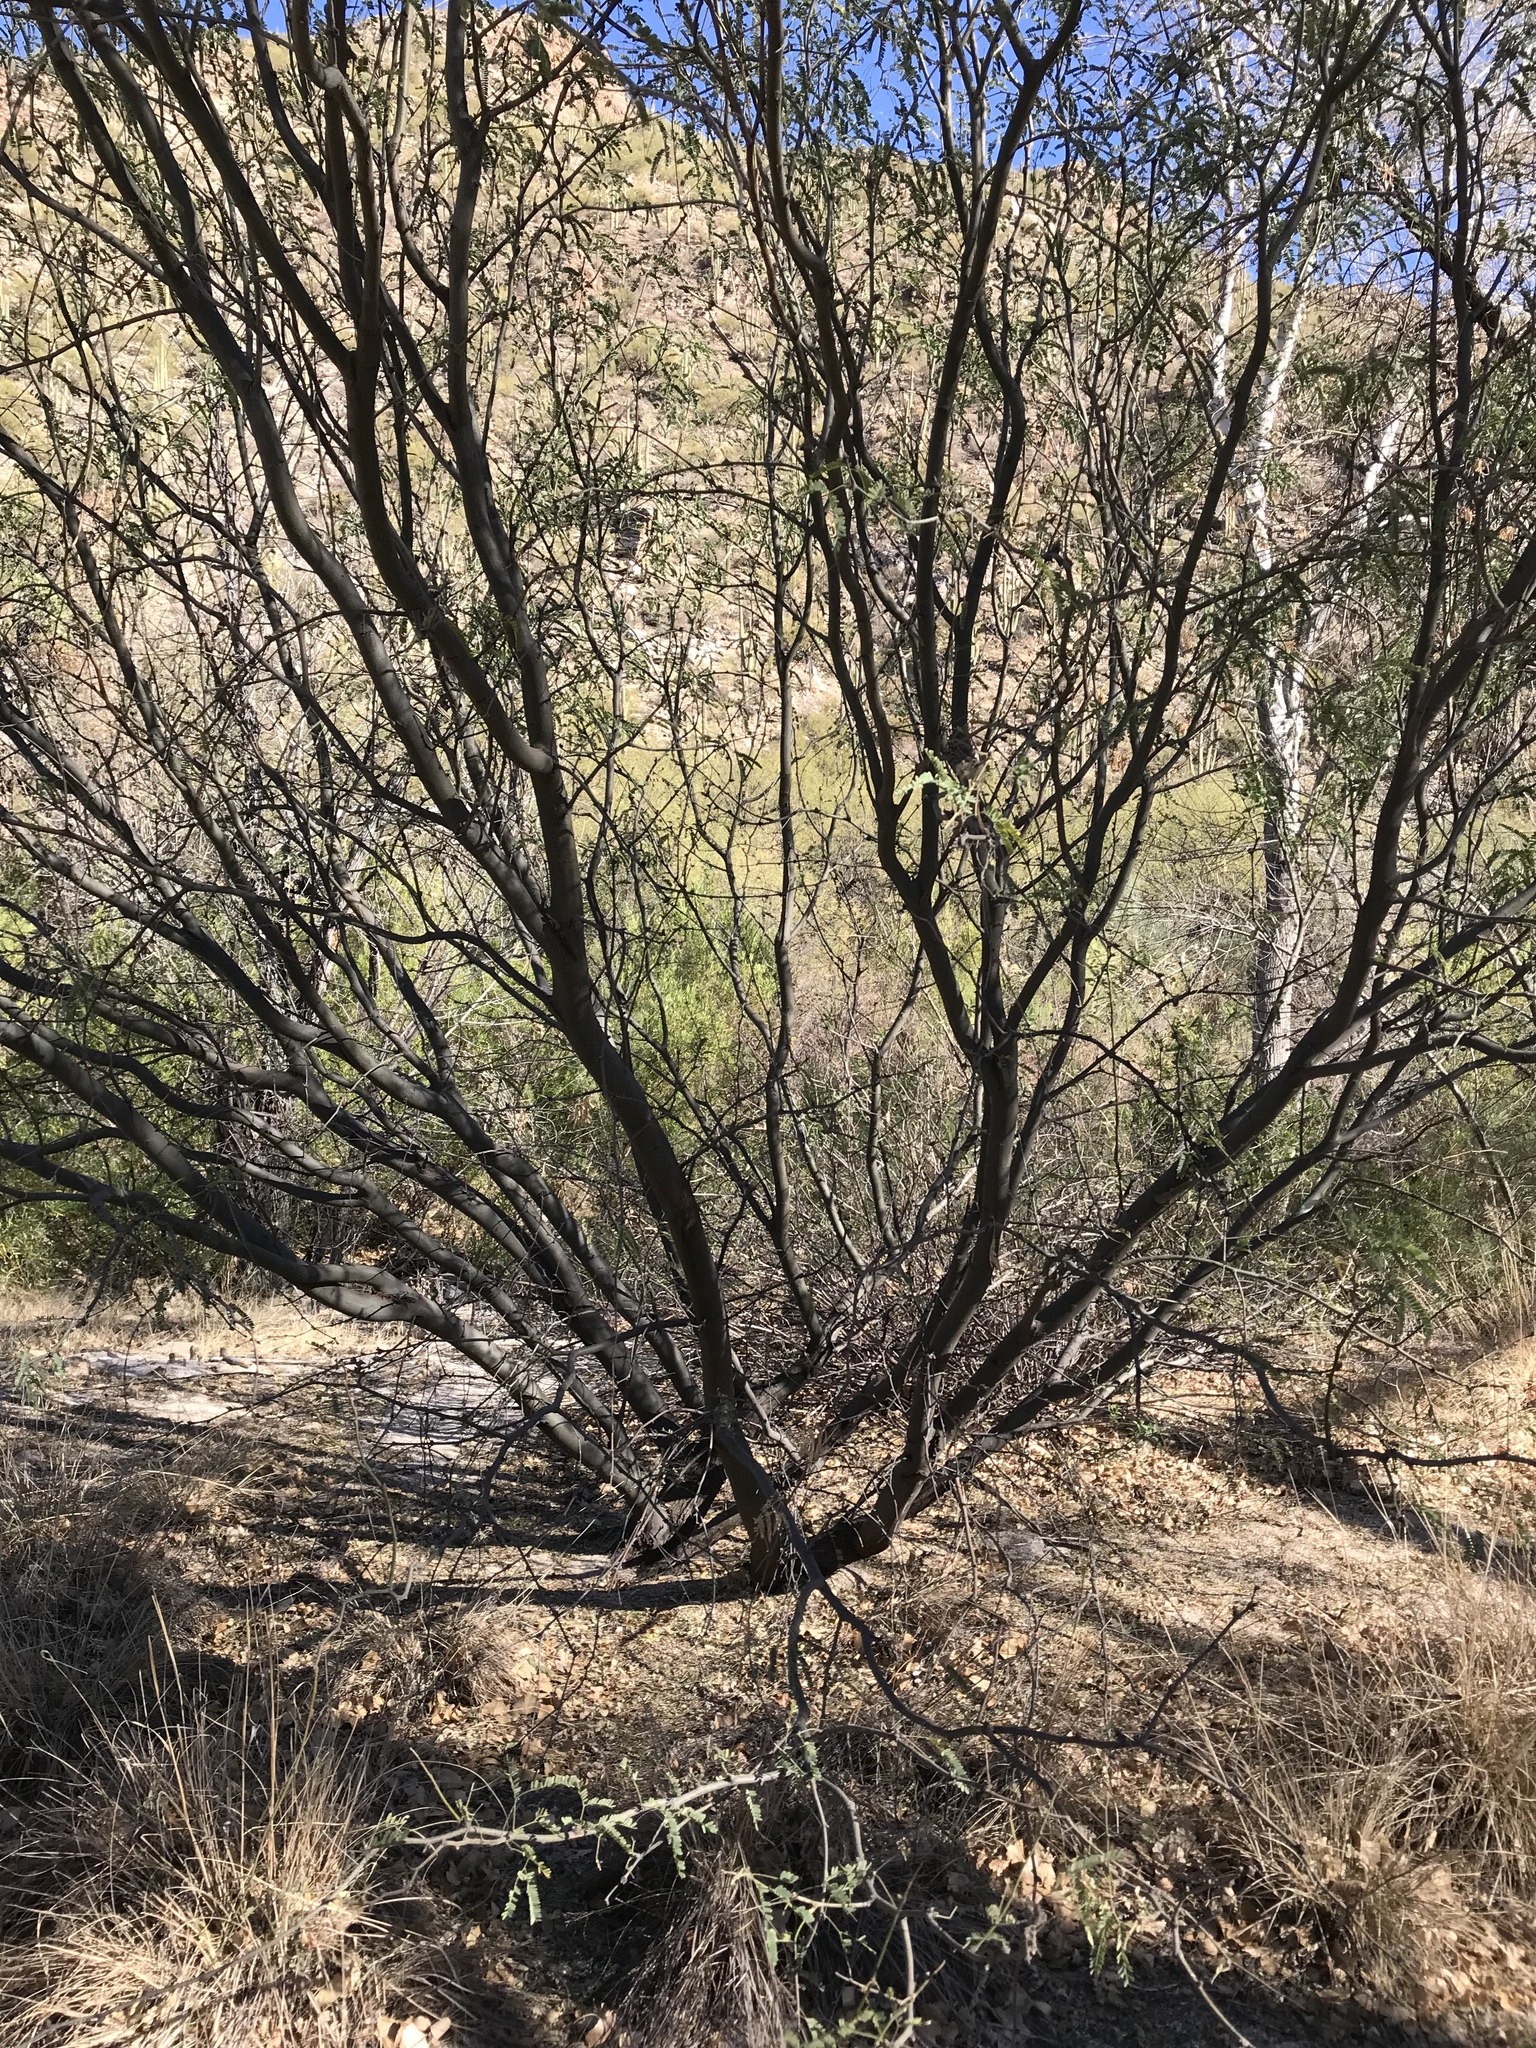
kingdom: Plantae
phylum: Tracheophyta
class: Magnoliopsida
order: Fabales
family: Fabaceae
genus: Prosopis
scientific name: Prosopis velutina
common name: Velvet mesquite
